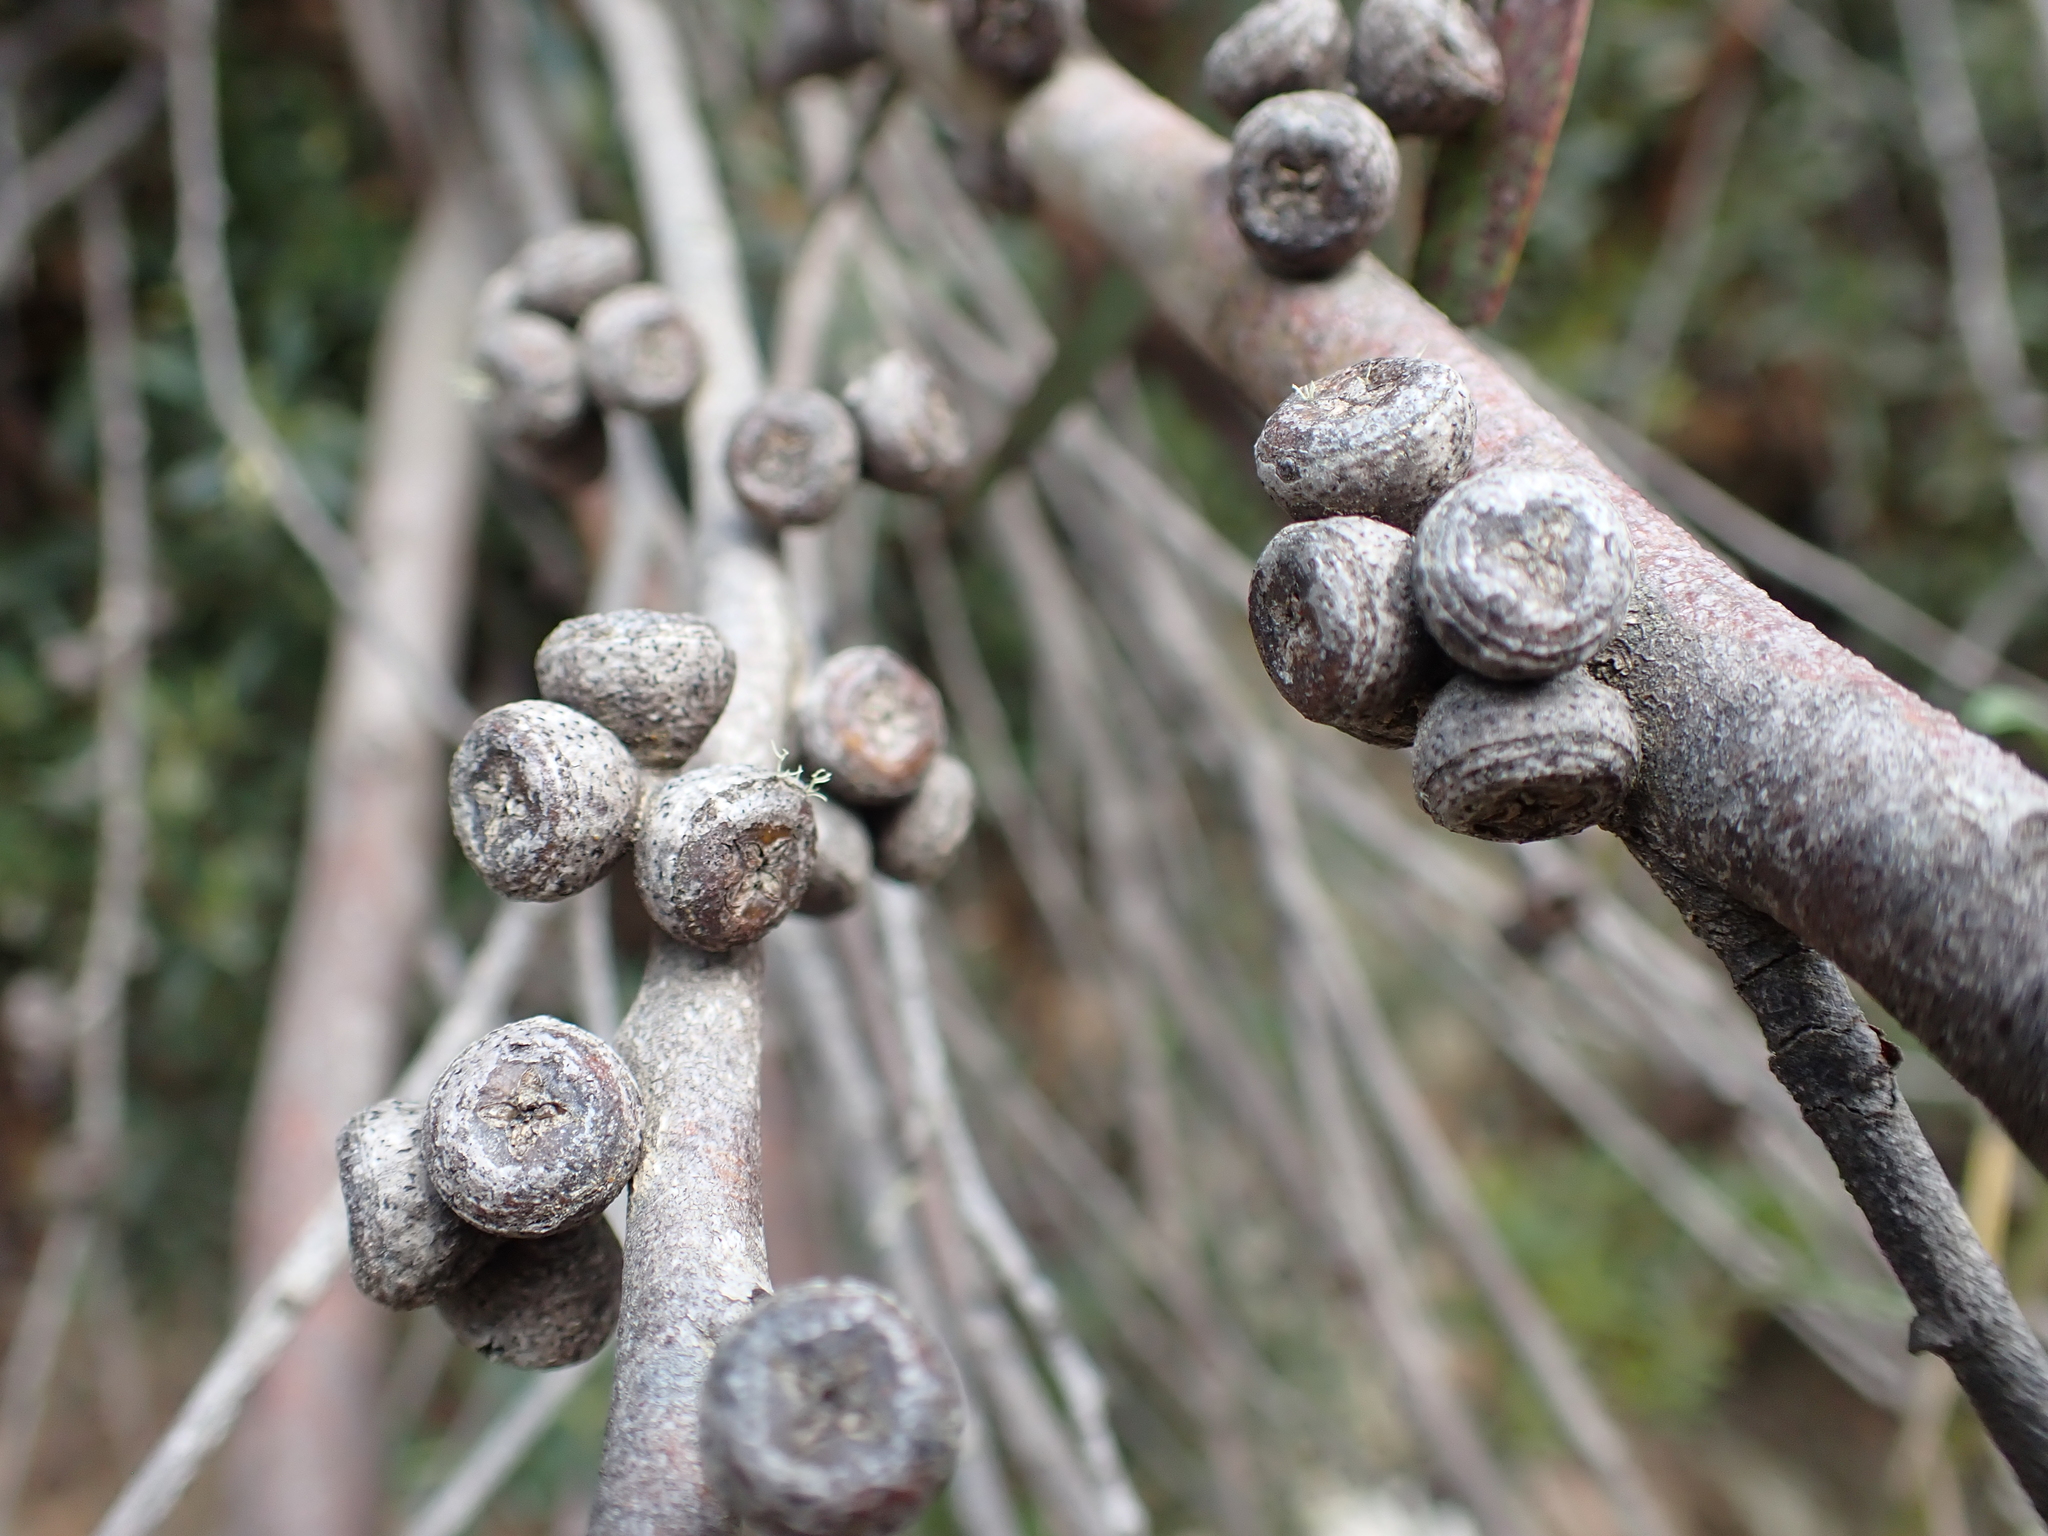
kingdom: Plantae
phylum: Tracheophyta
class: Magnoliopsida
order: Myrtales
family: Myrtaceae
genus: Eucalyptus
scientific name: Eucalyptus kybeanensis
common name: Kybean mallee-ash
